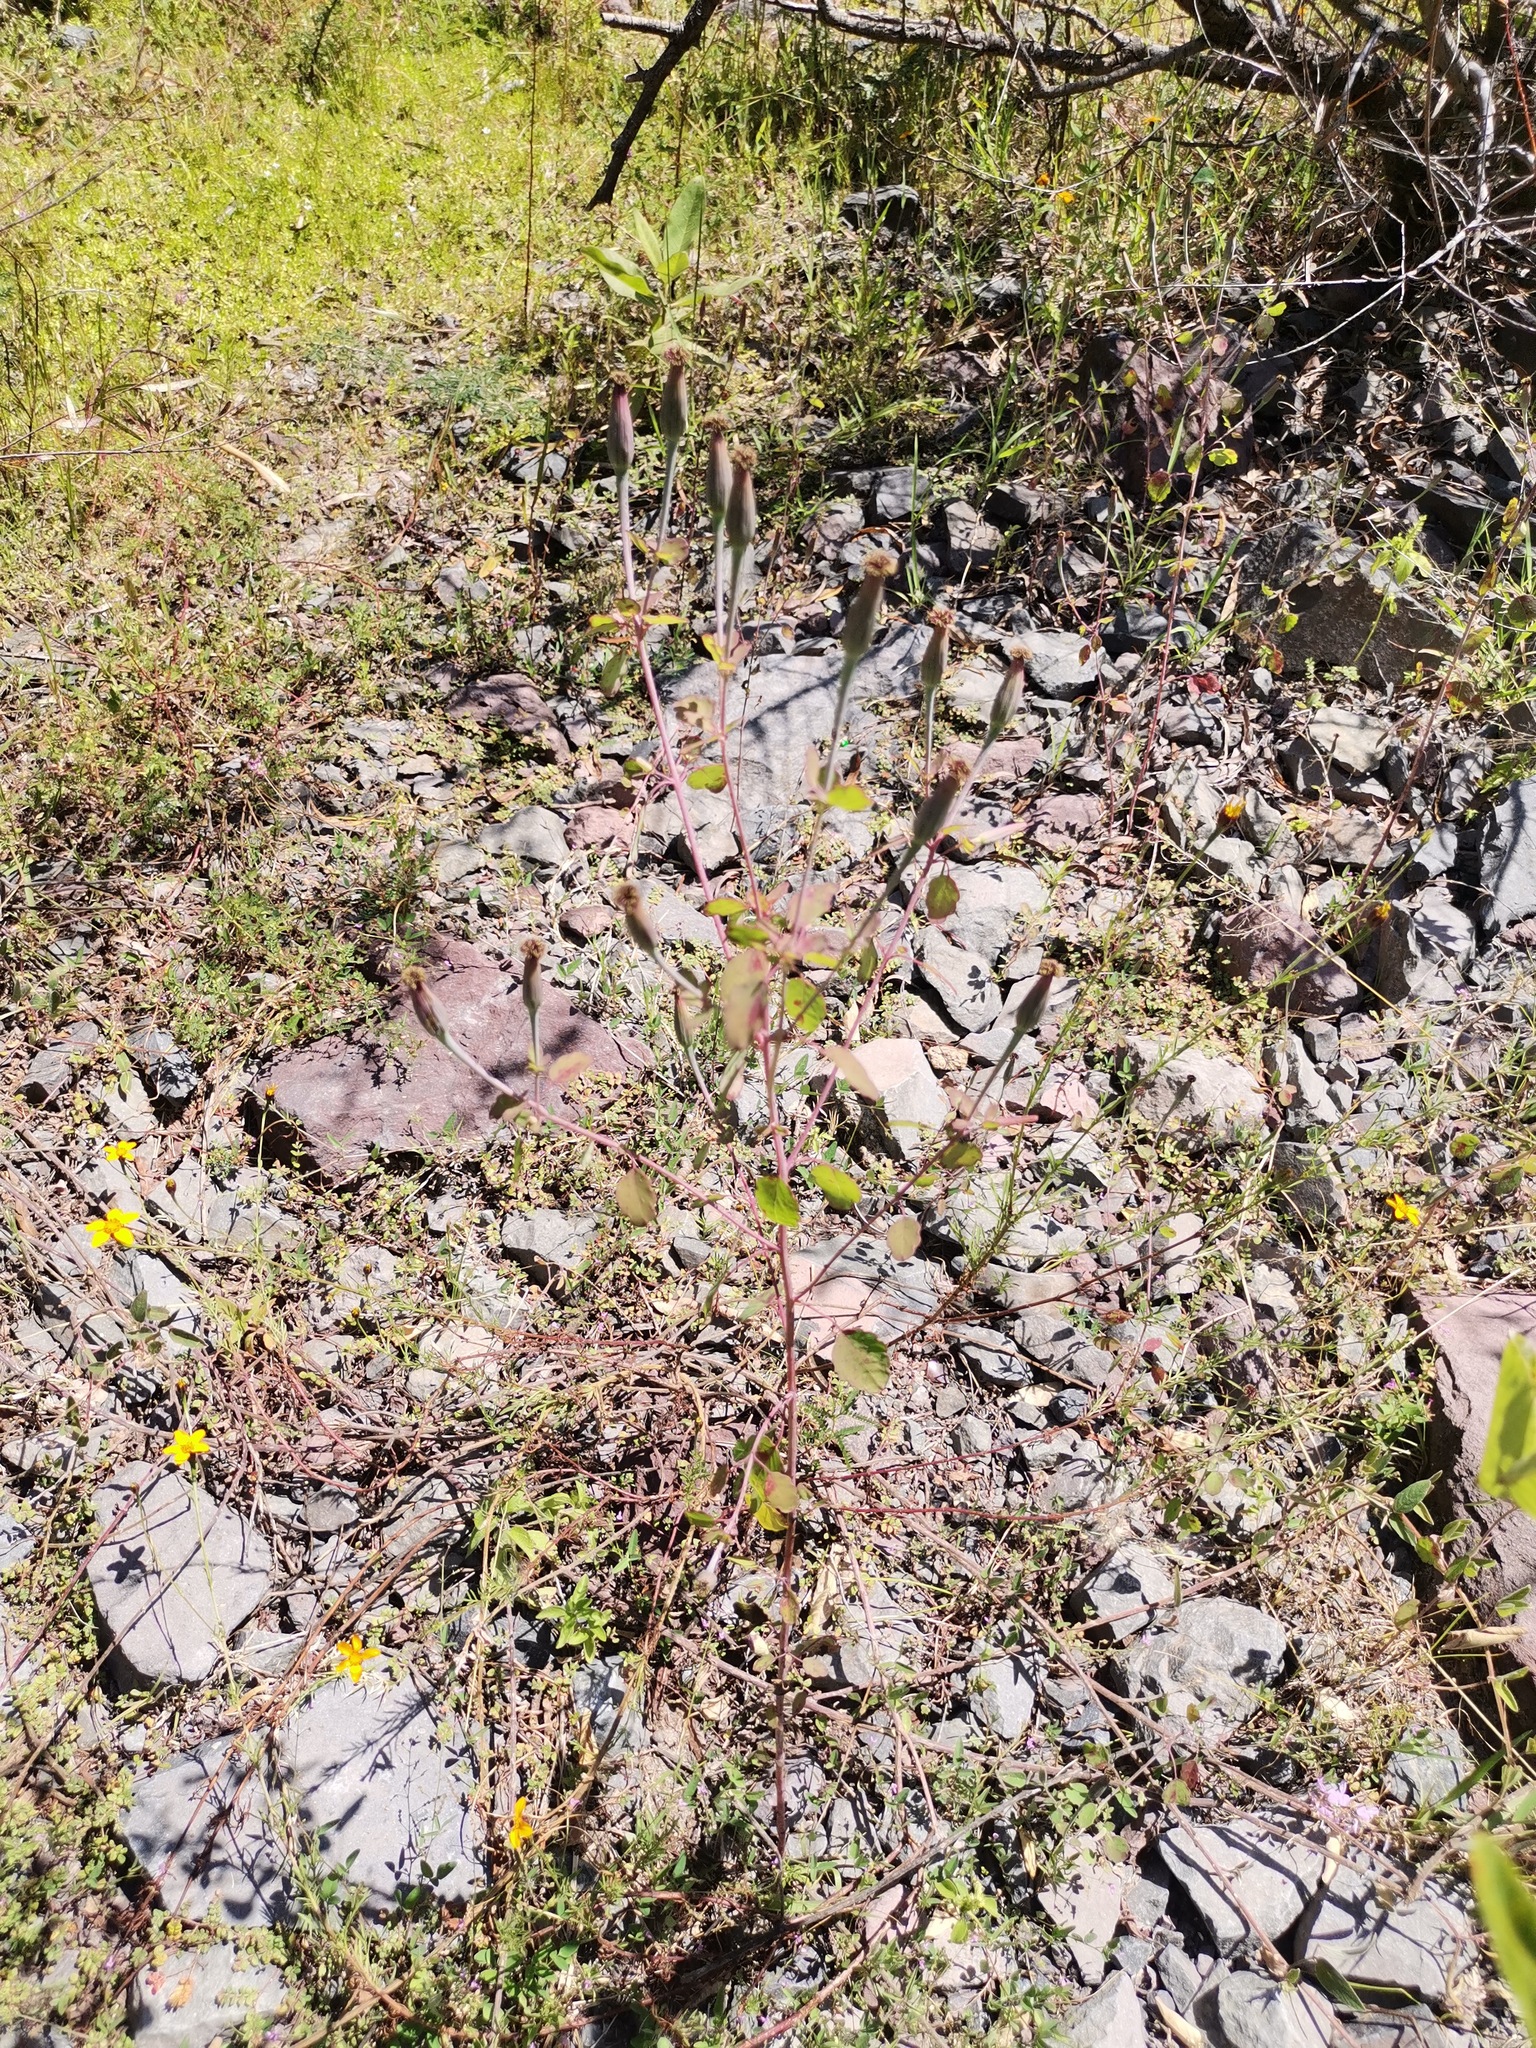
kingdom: Plantae
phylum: Tracheophyta
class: Magnoliopsida
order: Asterales
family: Asteraceae
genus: Porophyllum
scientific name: Porophyllum ruderale
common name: Yerba porosa
